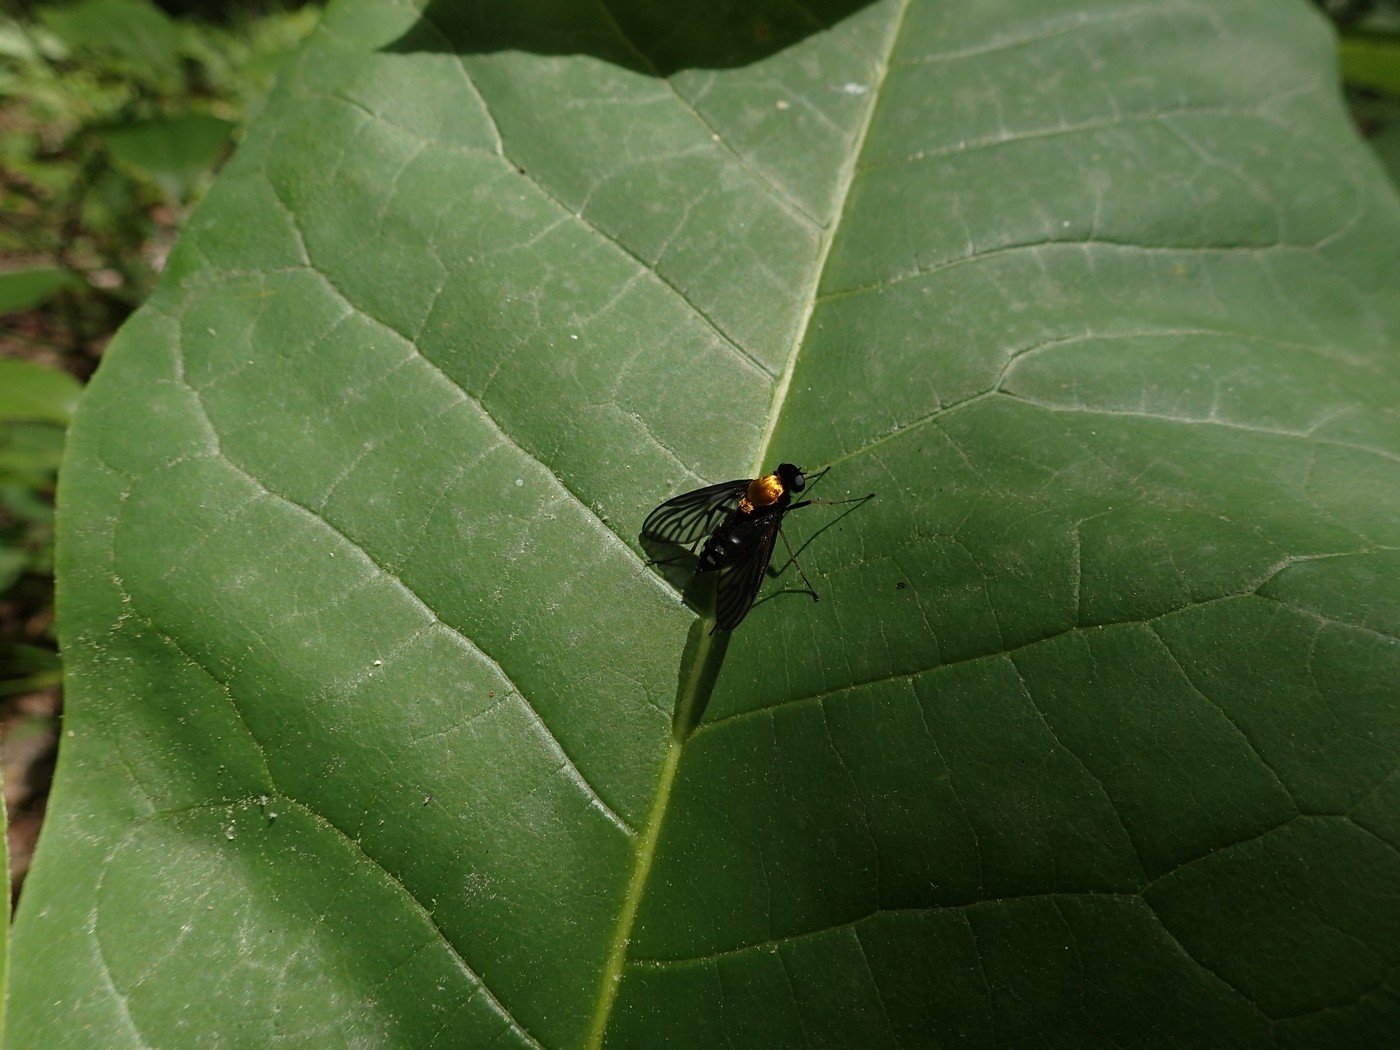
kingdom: Animalia
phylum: Arthropoda
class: Insecta
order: Diptera
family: Rhagionidae
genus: Chrysopilus
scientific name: Chrysopilus thoracicus
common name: Golden-backed snipe fly
